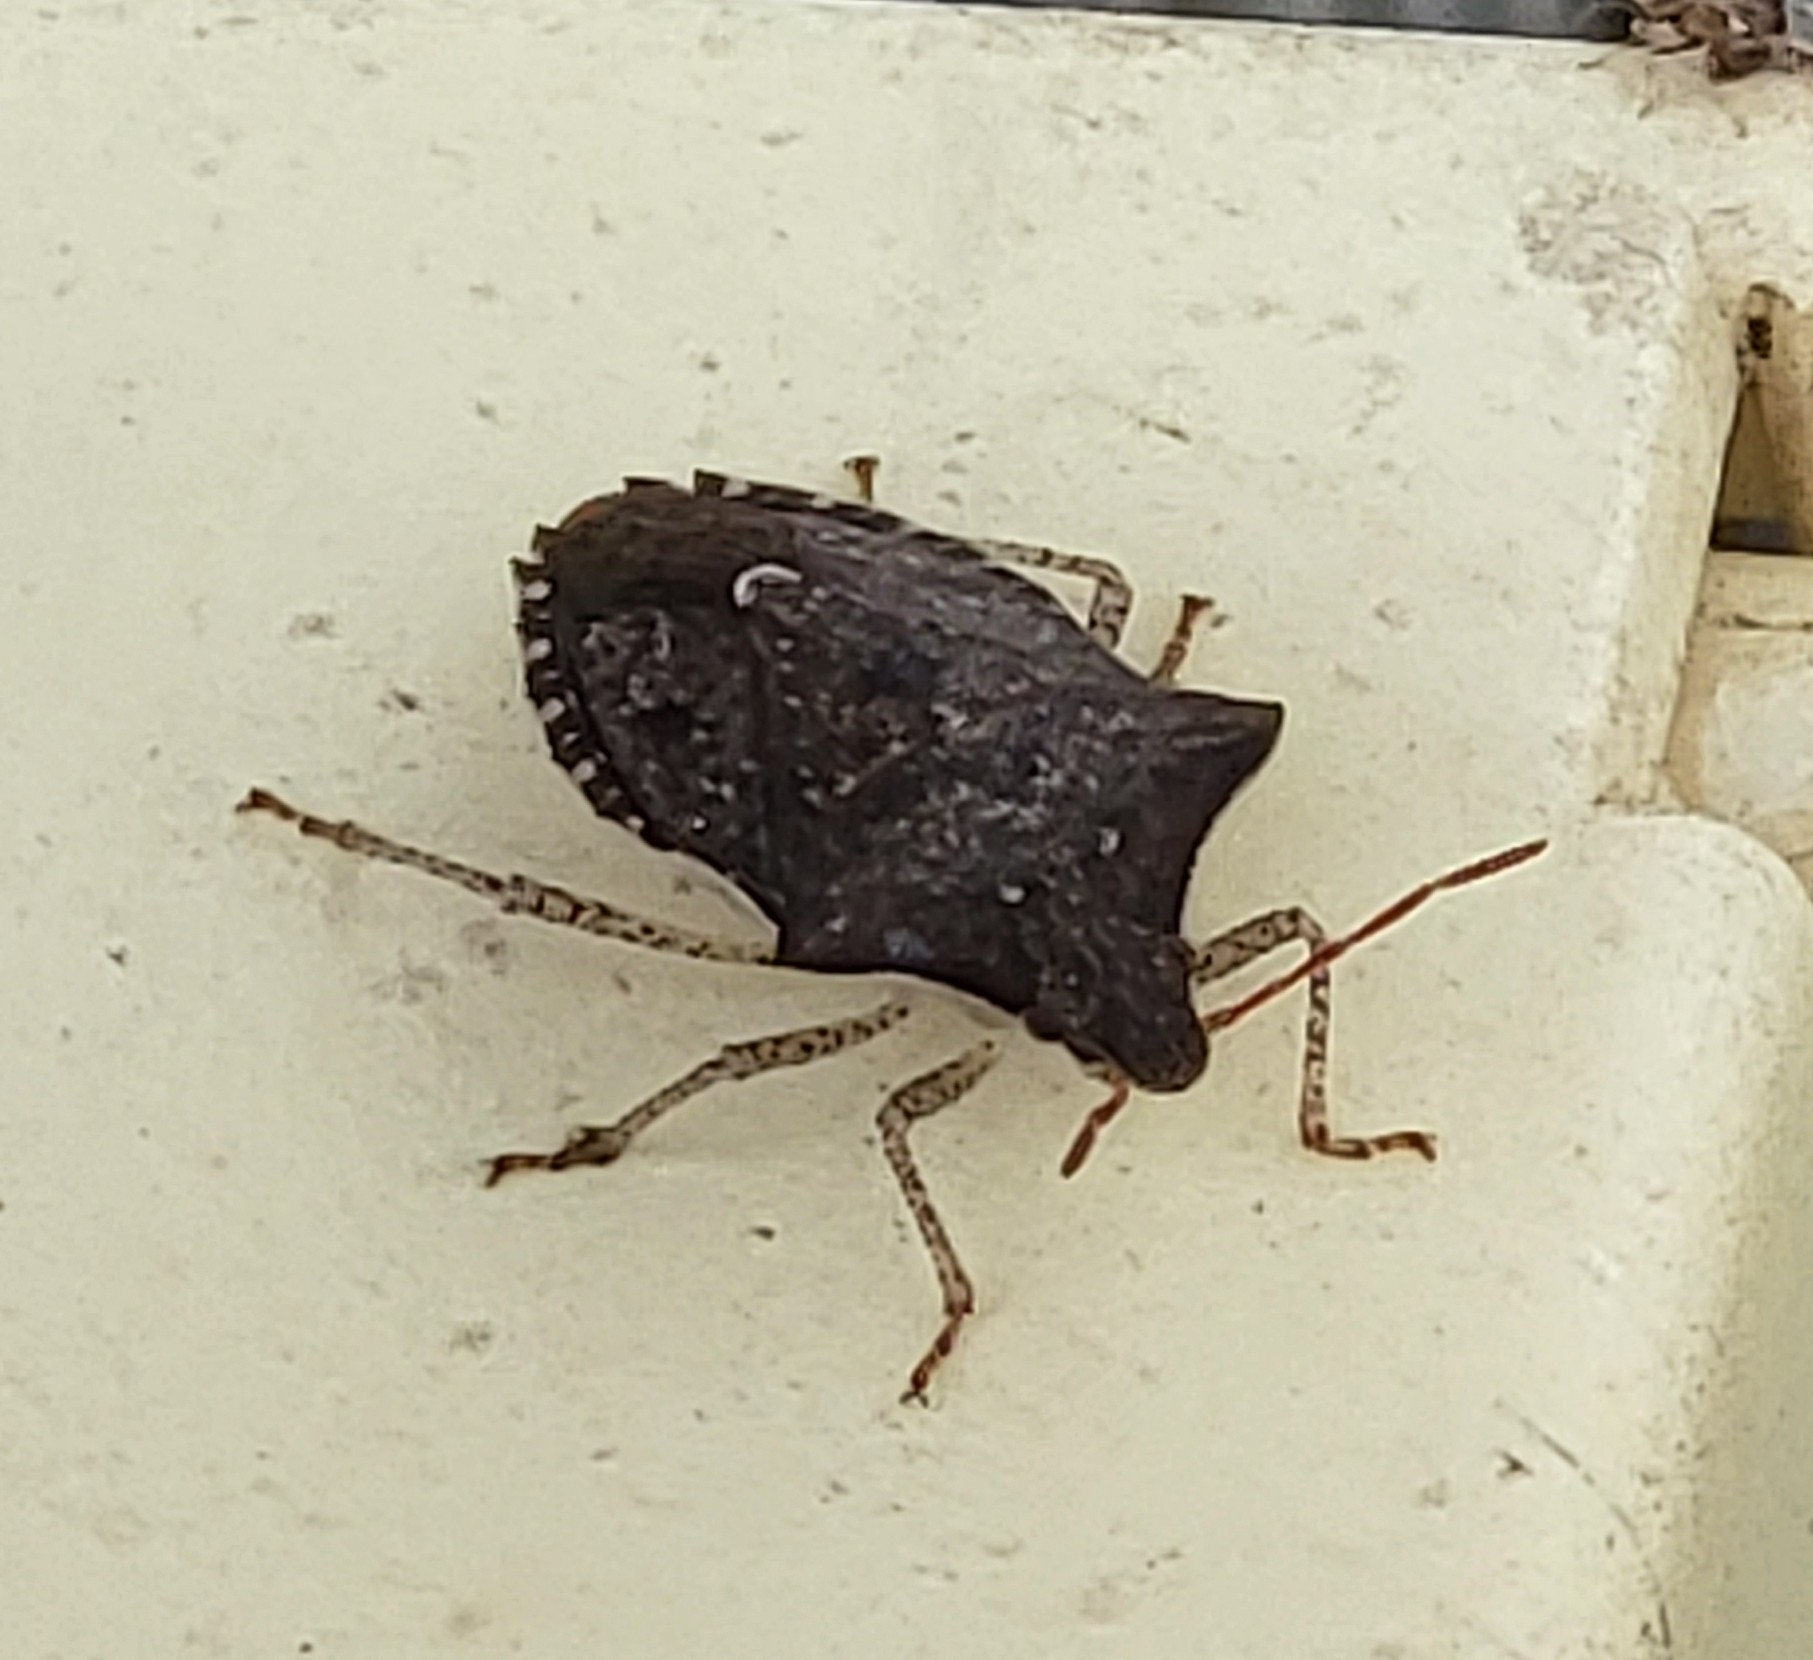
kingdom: Animalia
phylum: Arthropoda
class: Insecta
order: Hemiptera
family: Pentatomidae
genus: Euschistus
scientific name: Euschistus tristigmus
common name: Dusky stink bug
